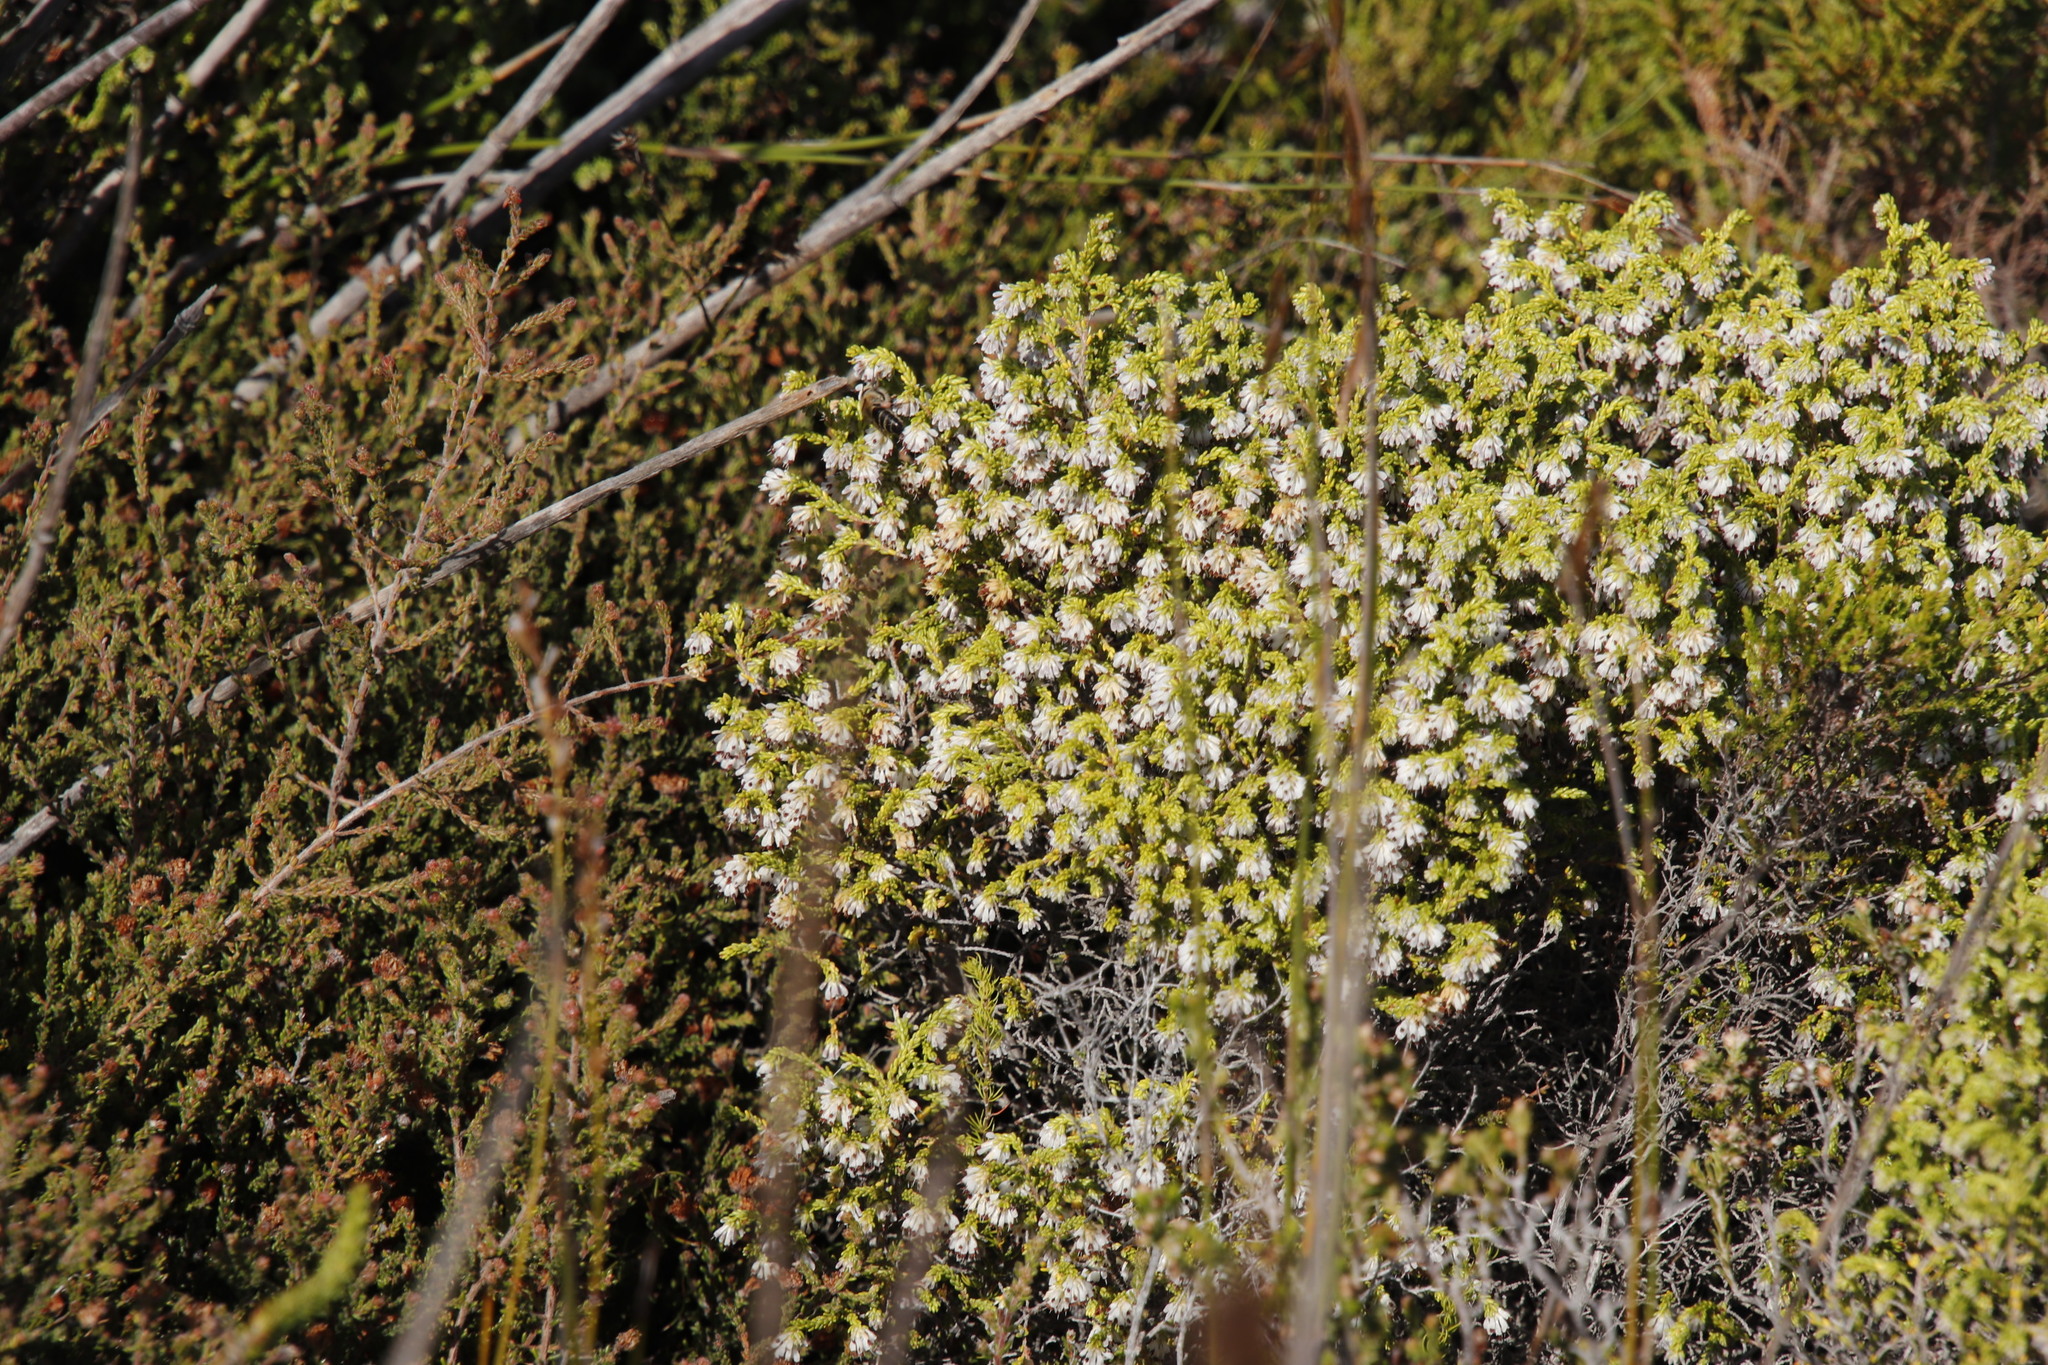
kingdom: Plantae
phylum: Tracheophyta
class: Magnoliopsida
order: Ericales
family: Ericaceae
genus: Erica
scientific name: Erica labialis
